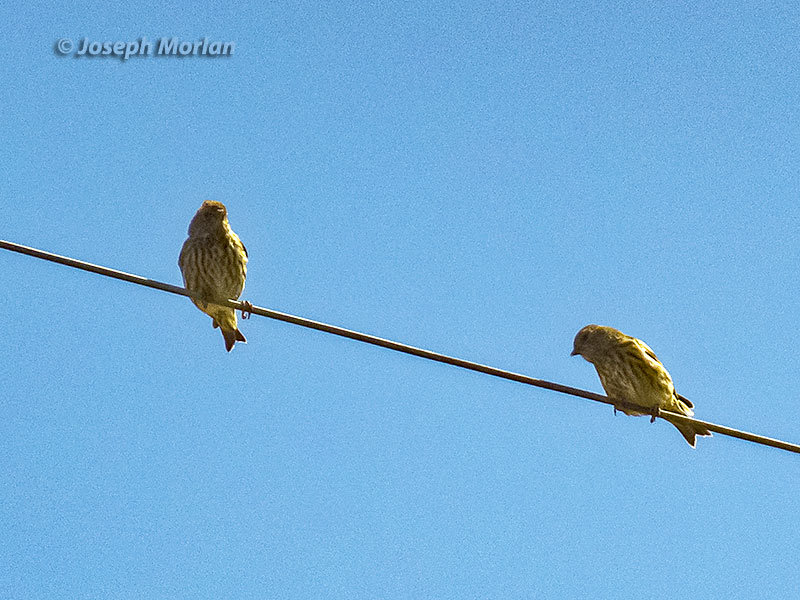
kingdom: Animalia
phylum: Chordata
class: Aves
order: Passeriformes
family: Fringillidae
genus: Spinus
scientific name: Spinus pinus
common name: Pine siskin
